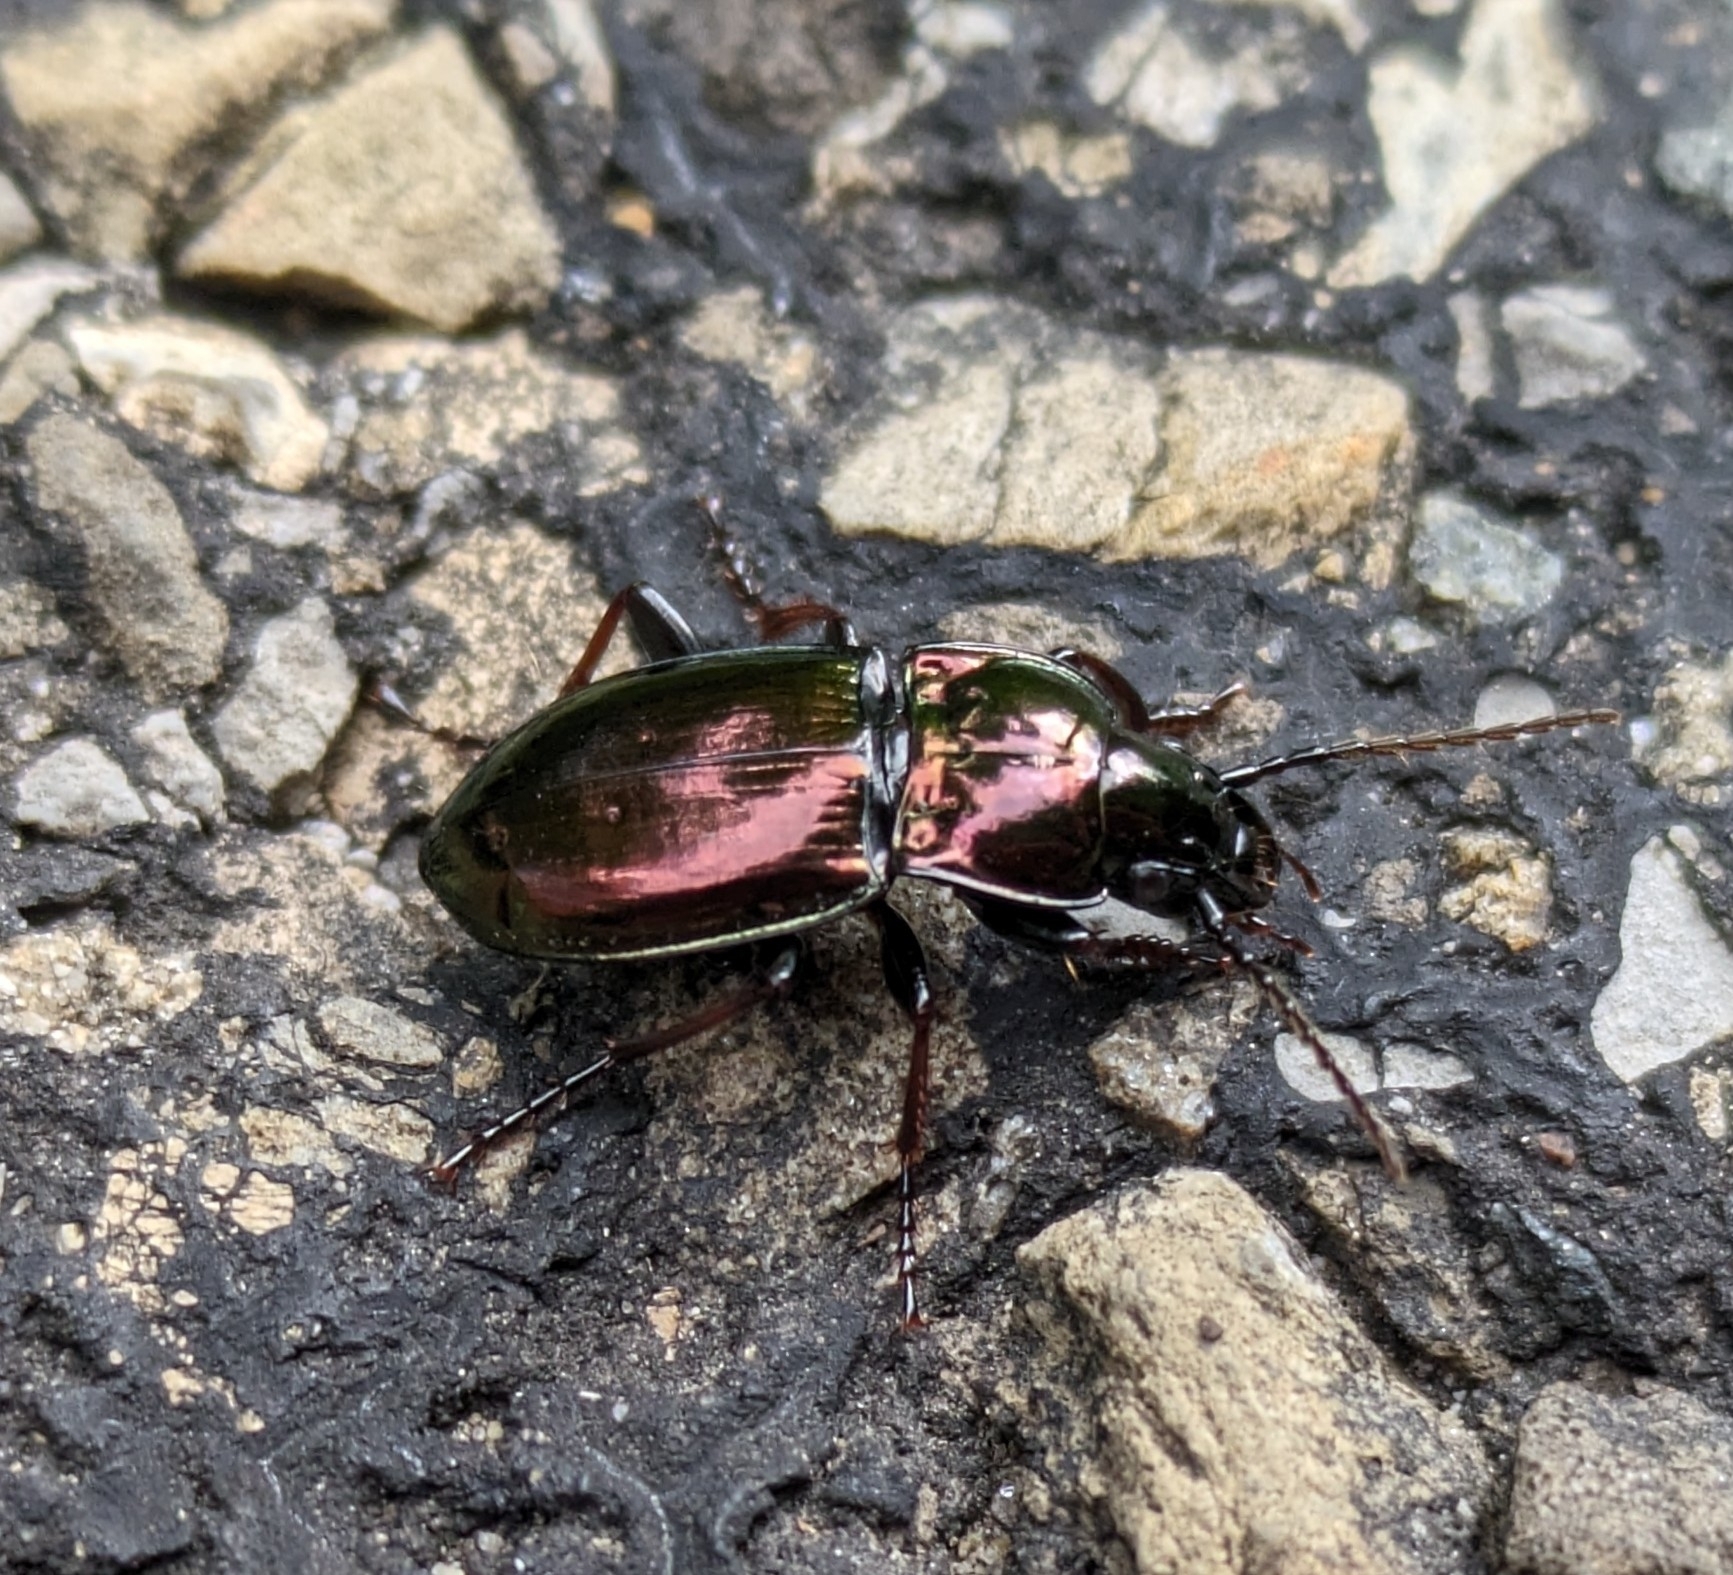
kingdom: Animalia
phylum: Arthropoda
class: Insecta
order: Coleoptera
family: Carabidae
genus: Pterostichus
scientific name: Pterostichus burmeisteri
